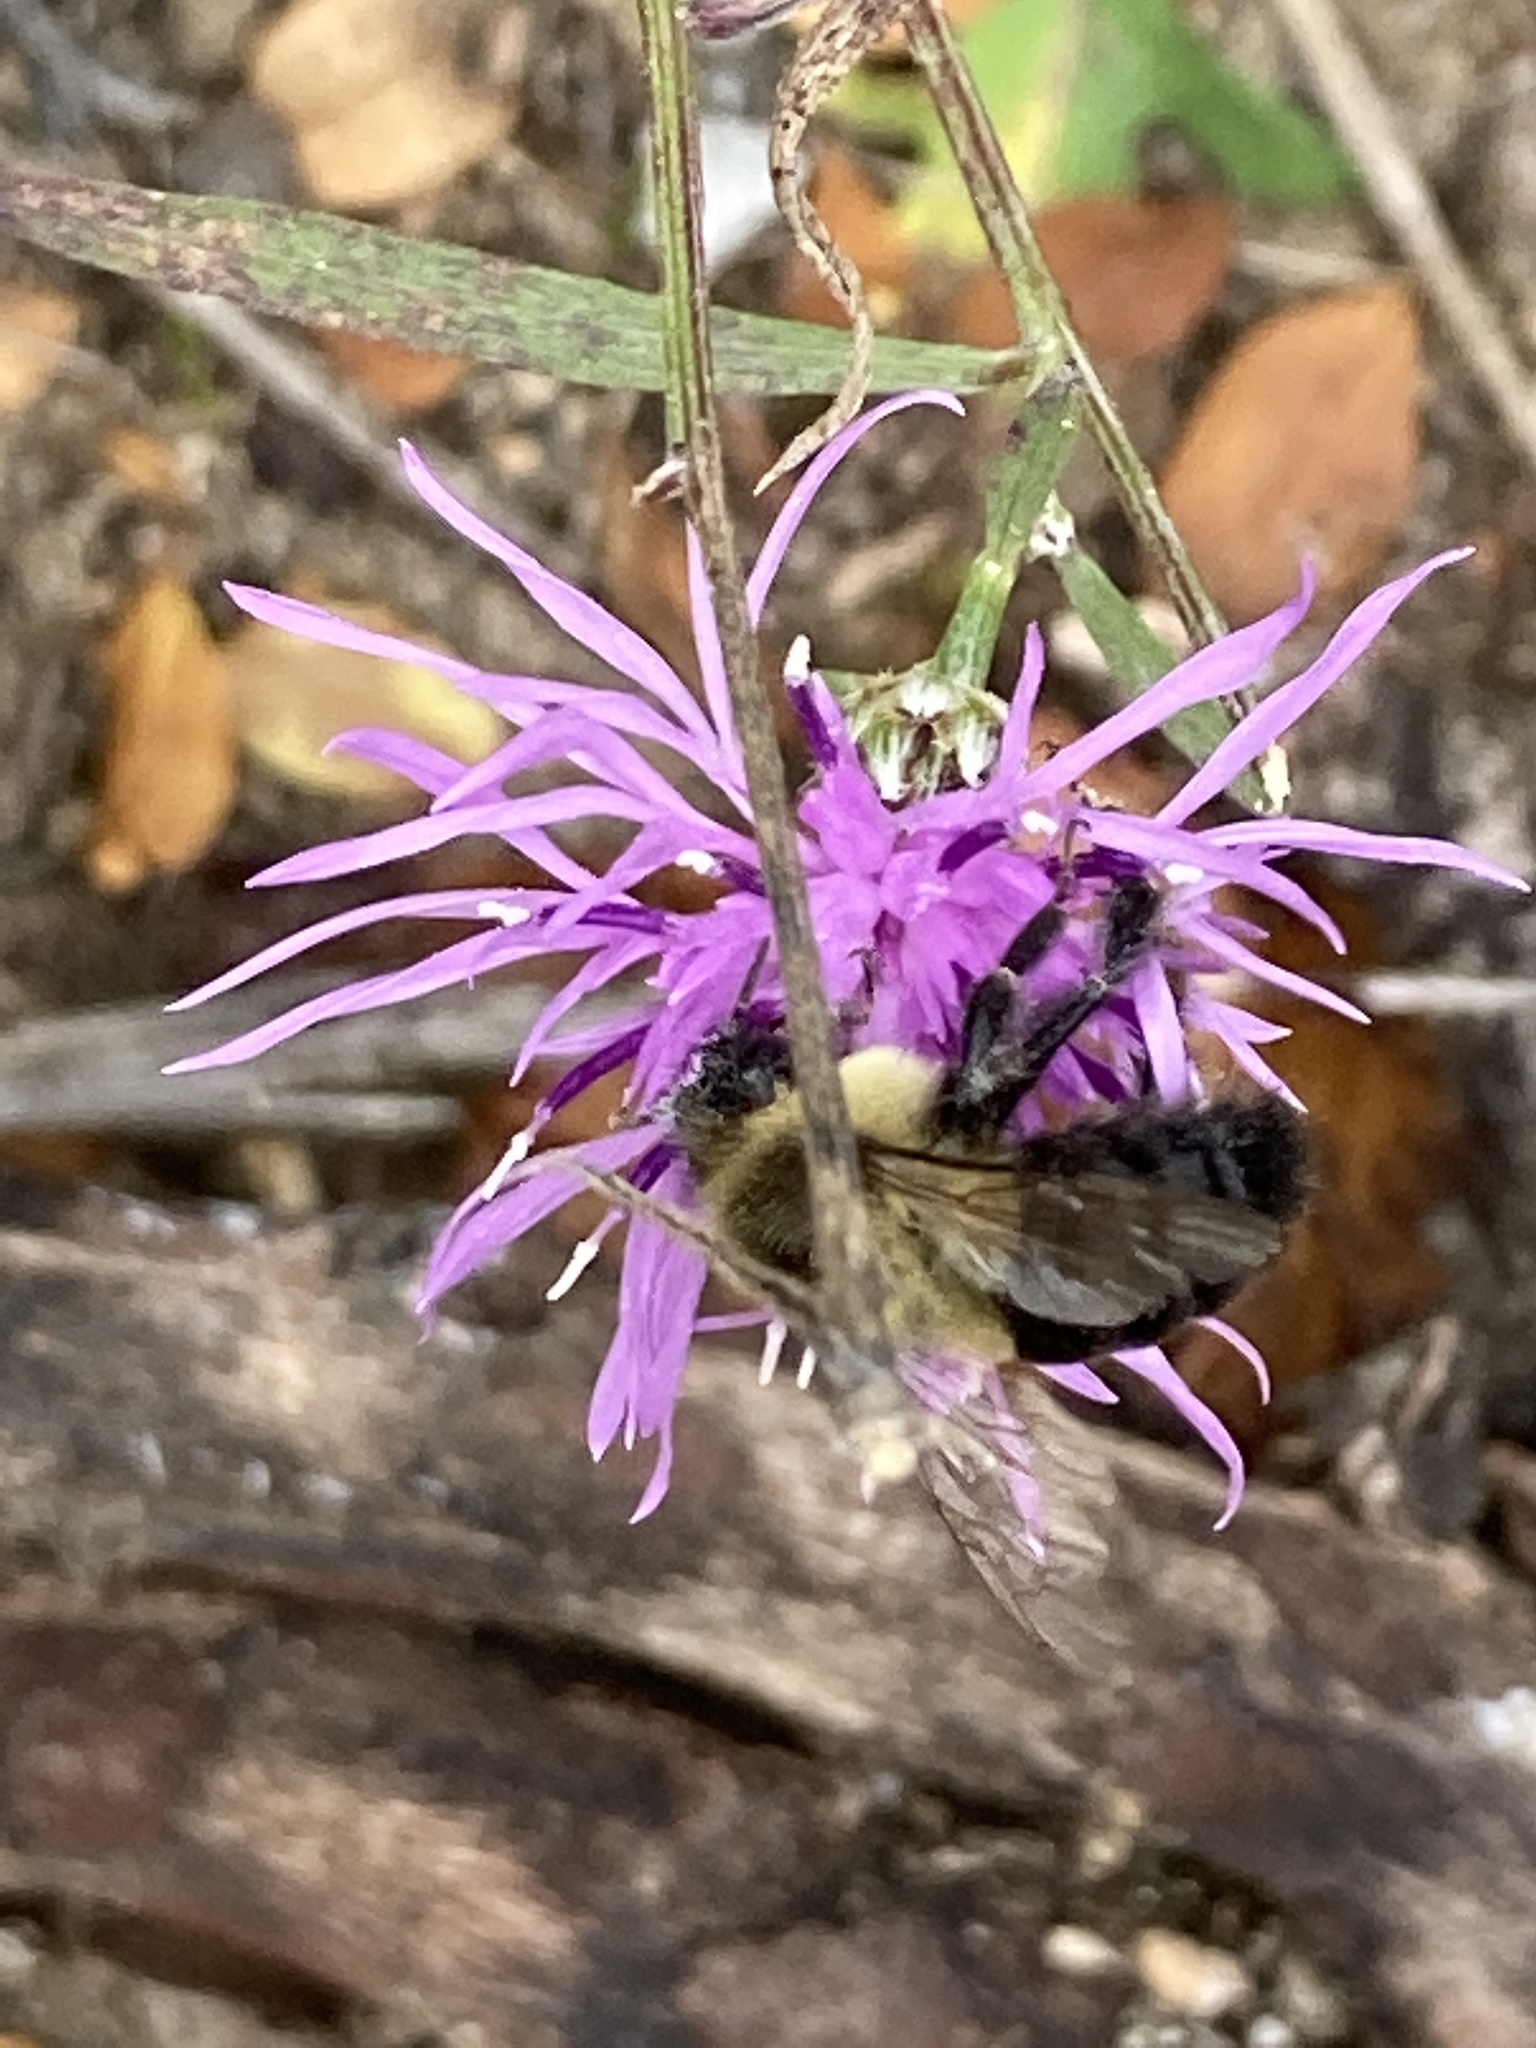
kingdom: Animalia
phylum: Arthropoda
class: Insecta
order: Hymenoptera
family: Apidae
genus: Bombus
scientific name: Bombus impatiens
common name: Common eastern bumble bee
